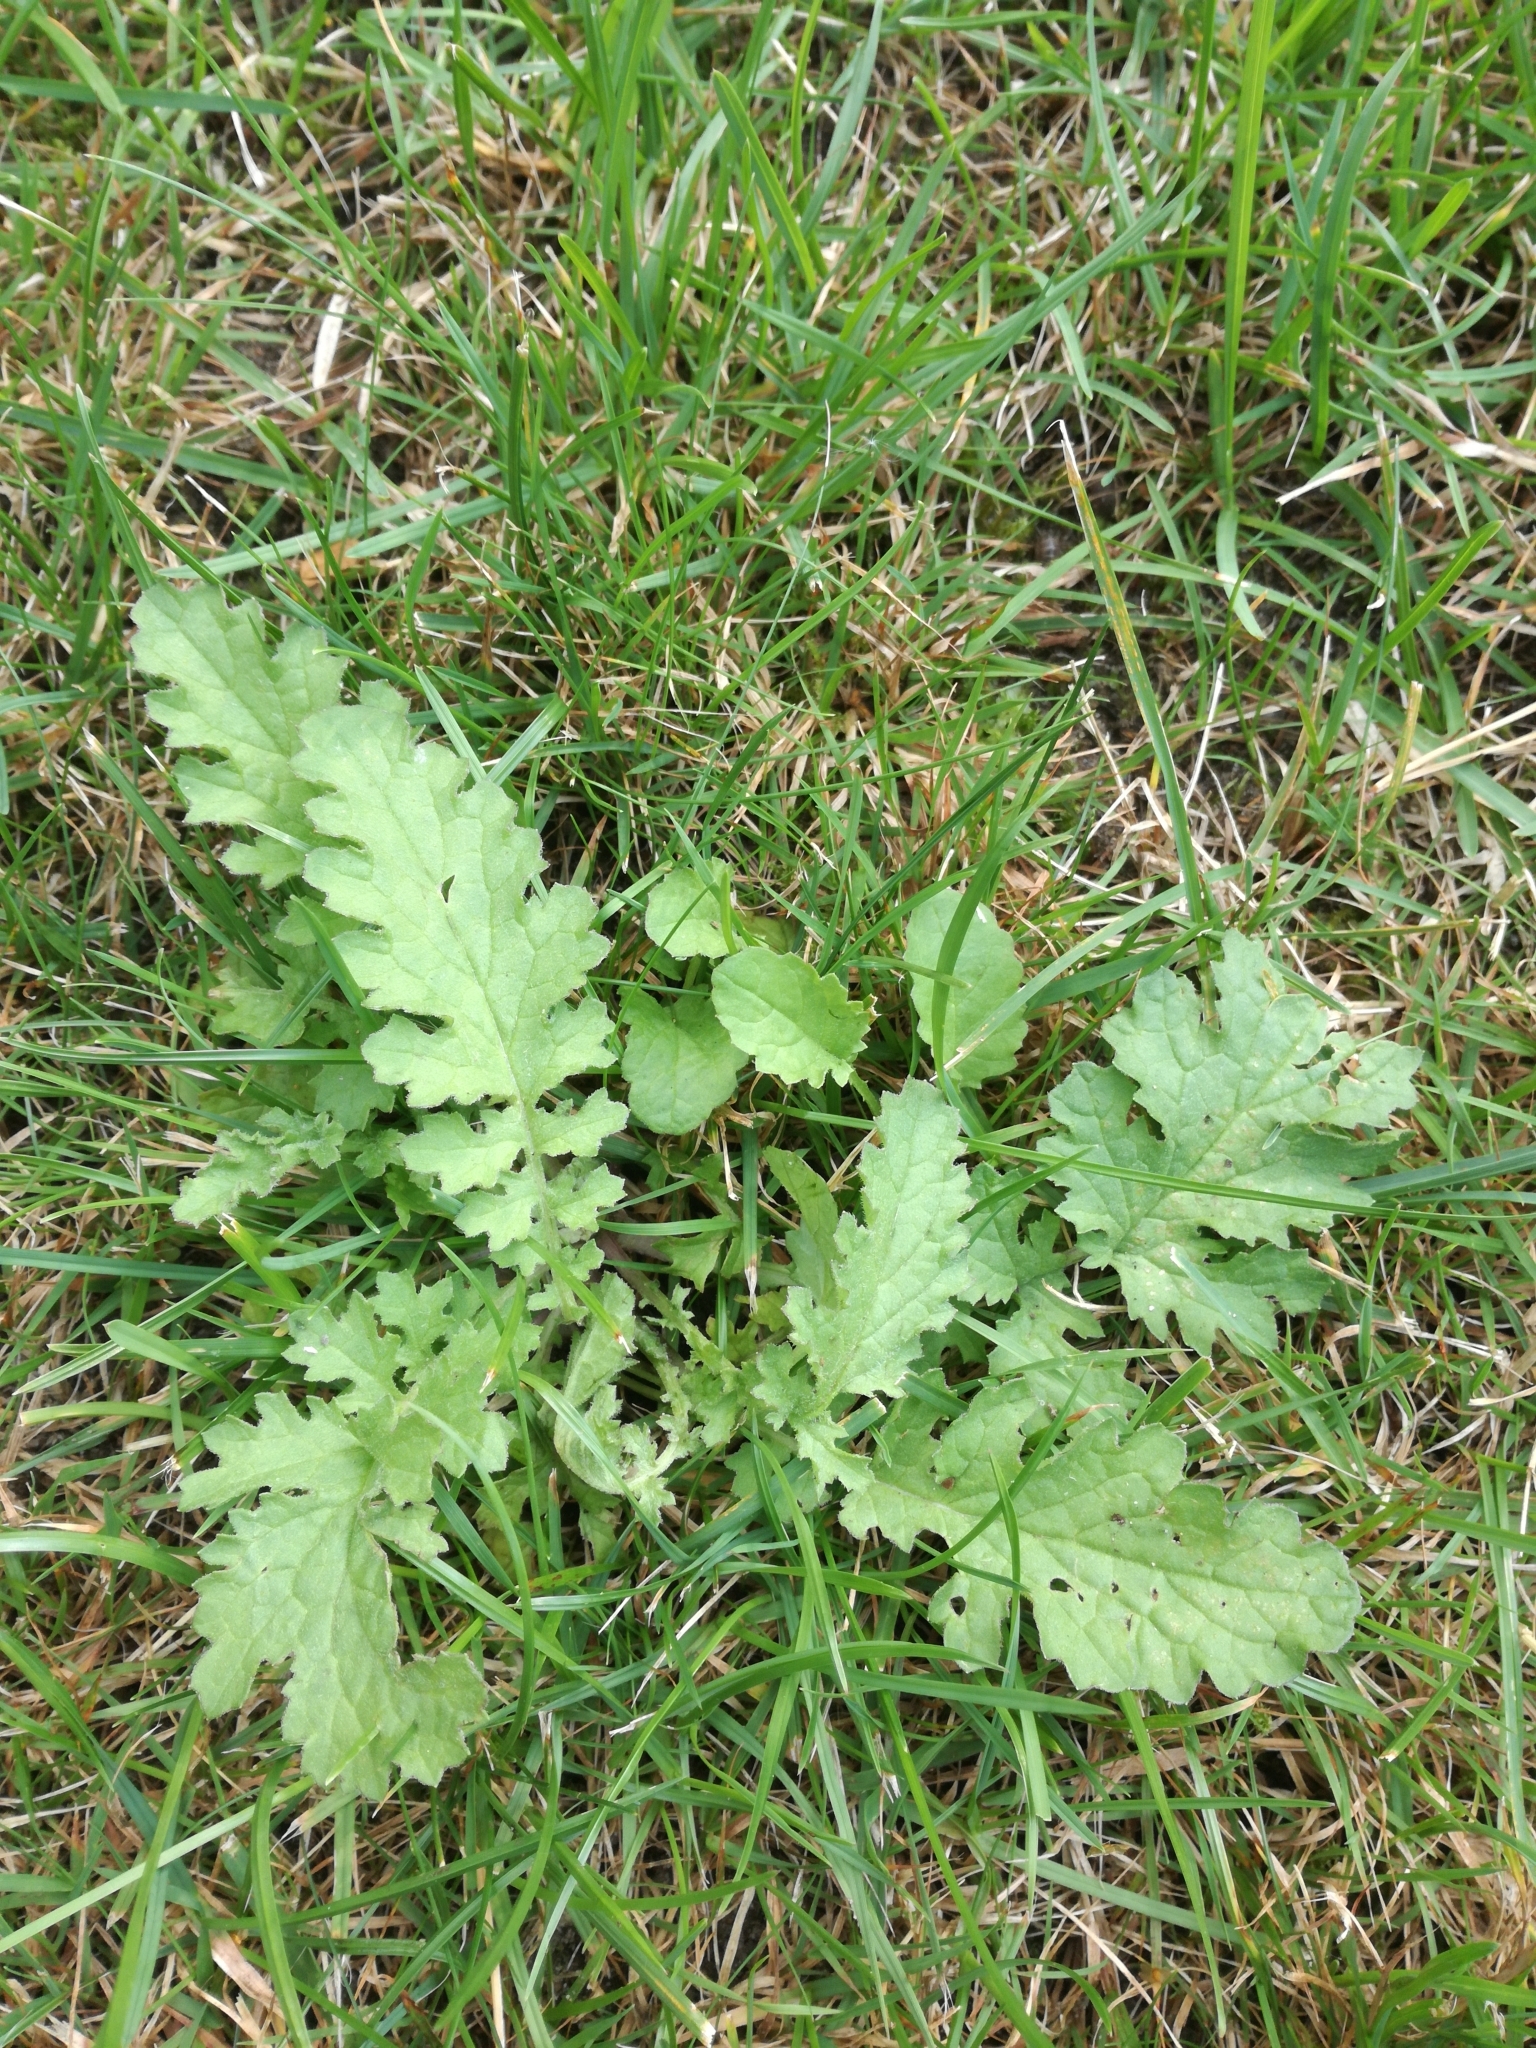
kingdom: Plantae
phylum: Tracheophyta
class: Magnoliopsida
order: Asterales
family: Asteraceae
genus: Jacobaea
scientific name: Jacobaea vulgaris
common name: Stinking willie
